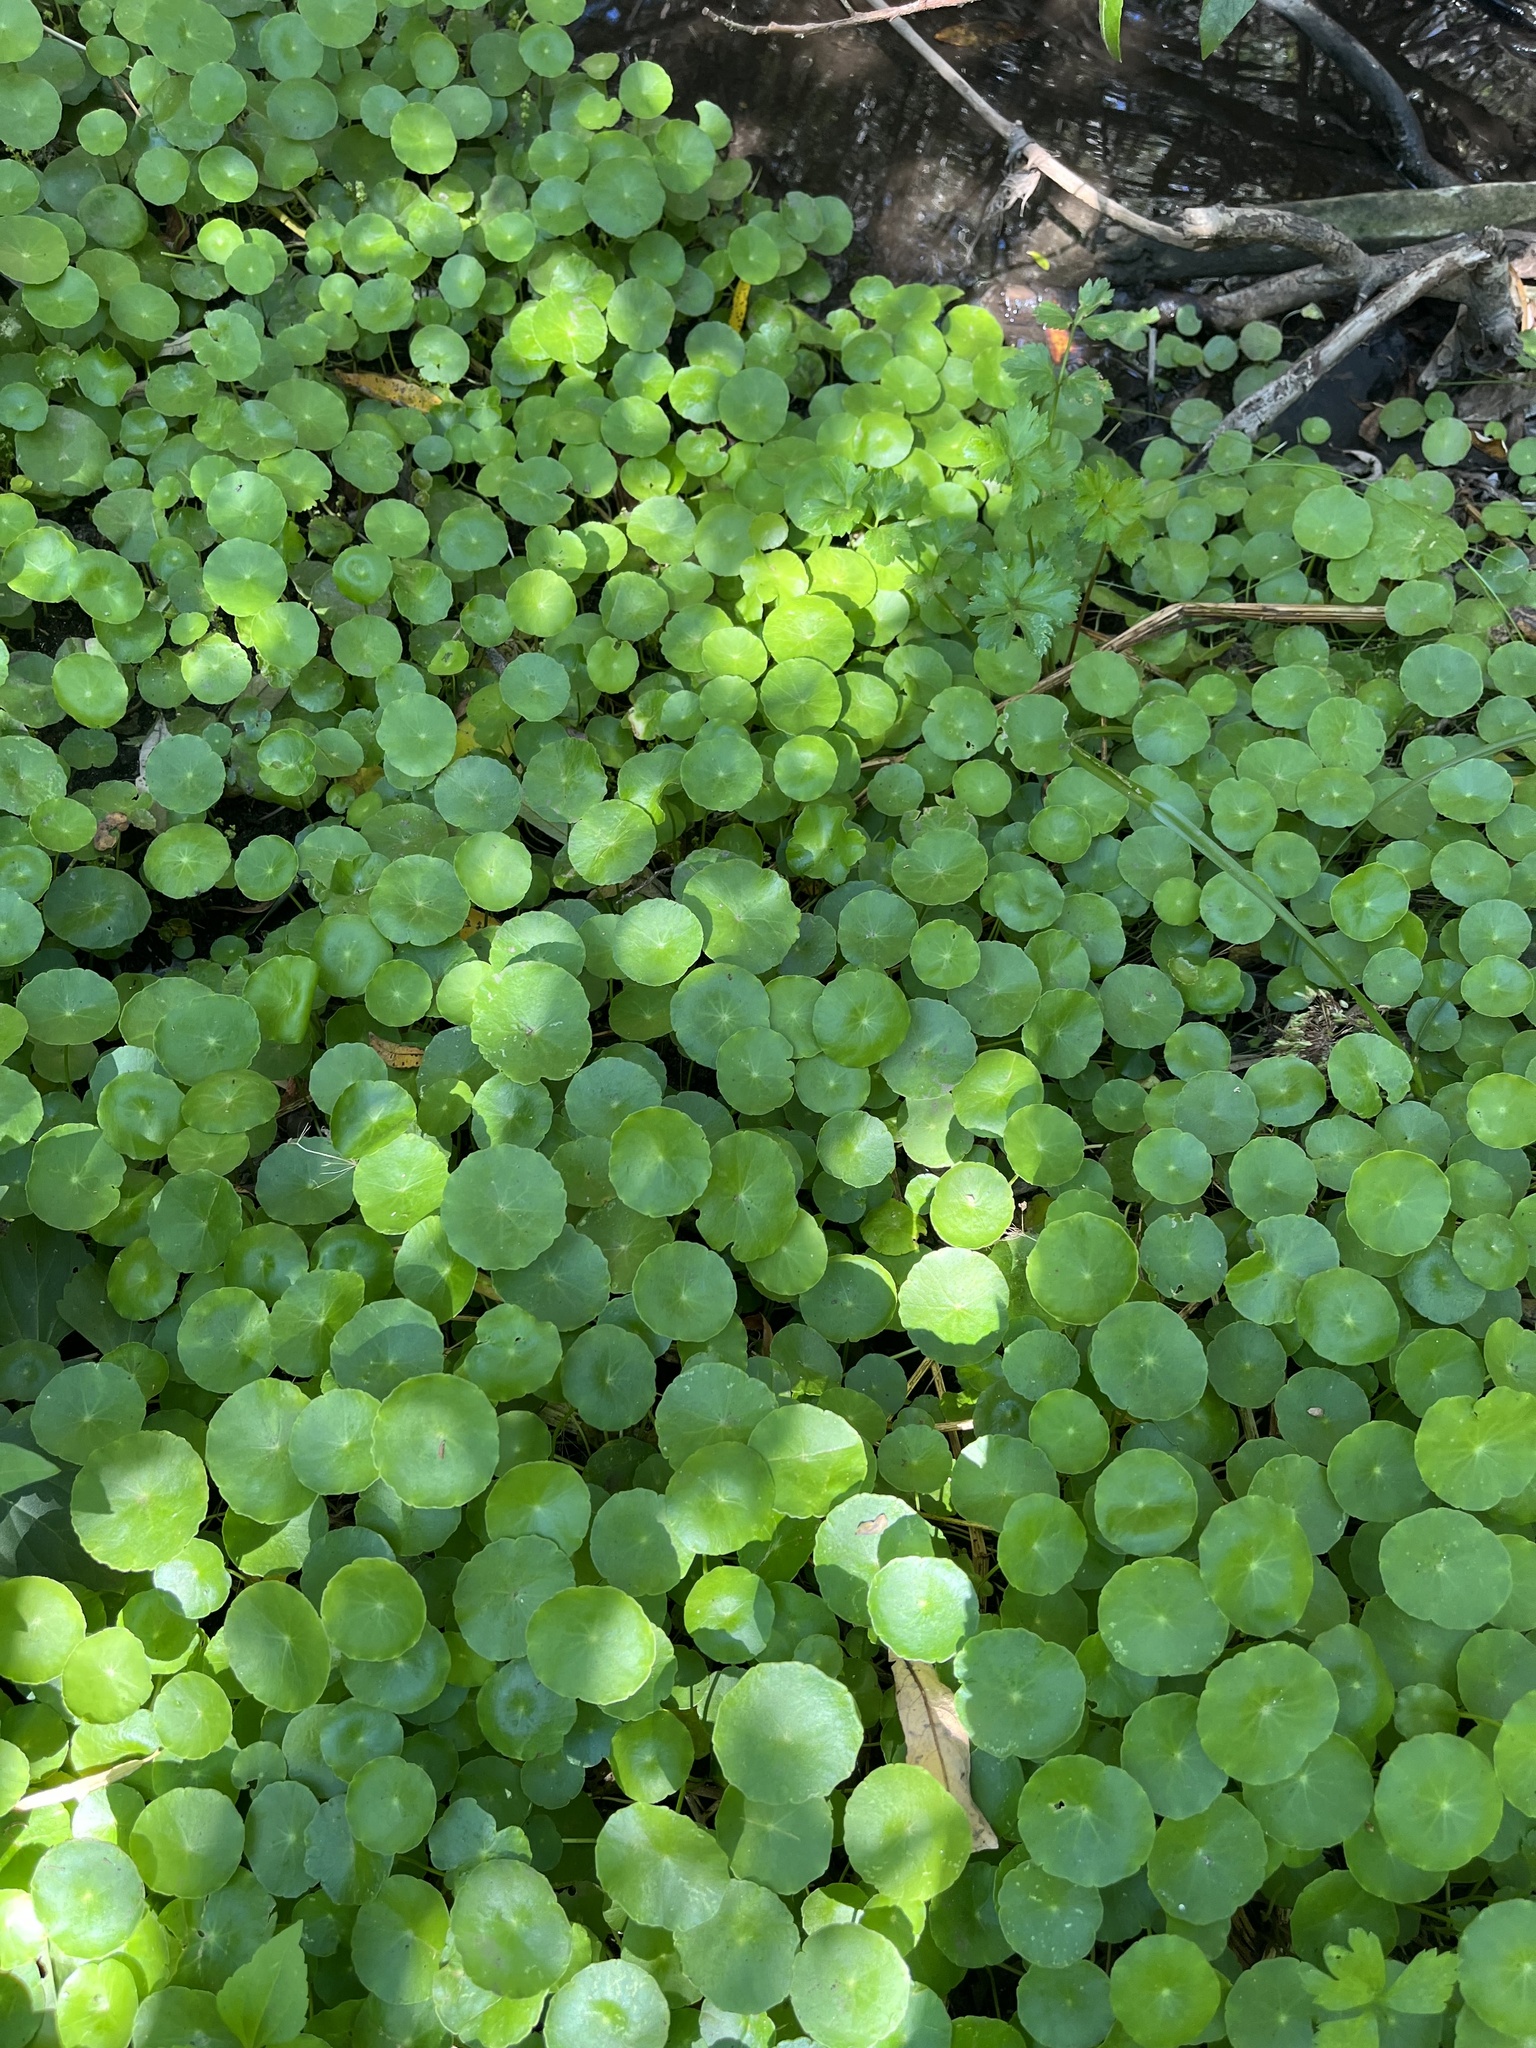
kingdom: Plantae
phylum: Tracheophyta
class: Magnoliopsida
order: Apiales
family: Araliaceae
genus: Hydrocotyle
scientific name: Hydrocotyle verticillata
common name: Whorled marshpennywort
